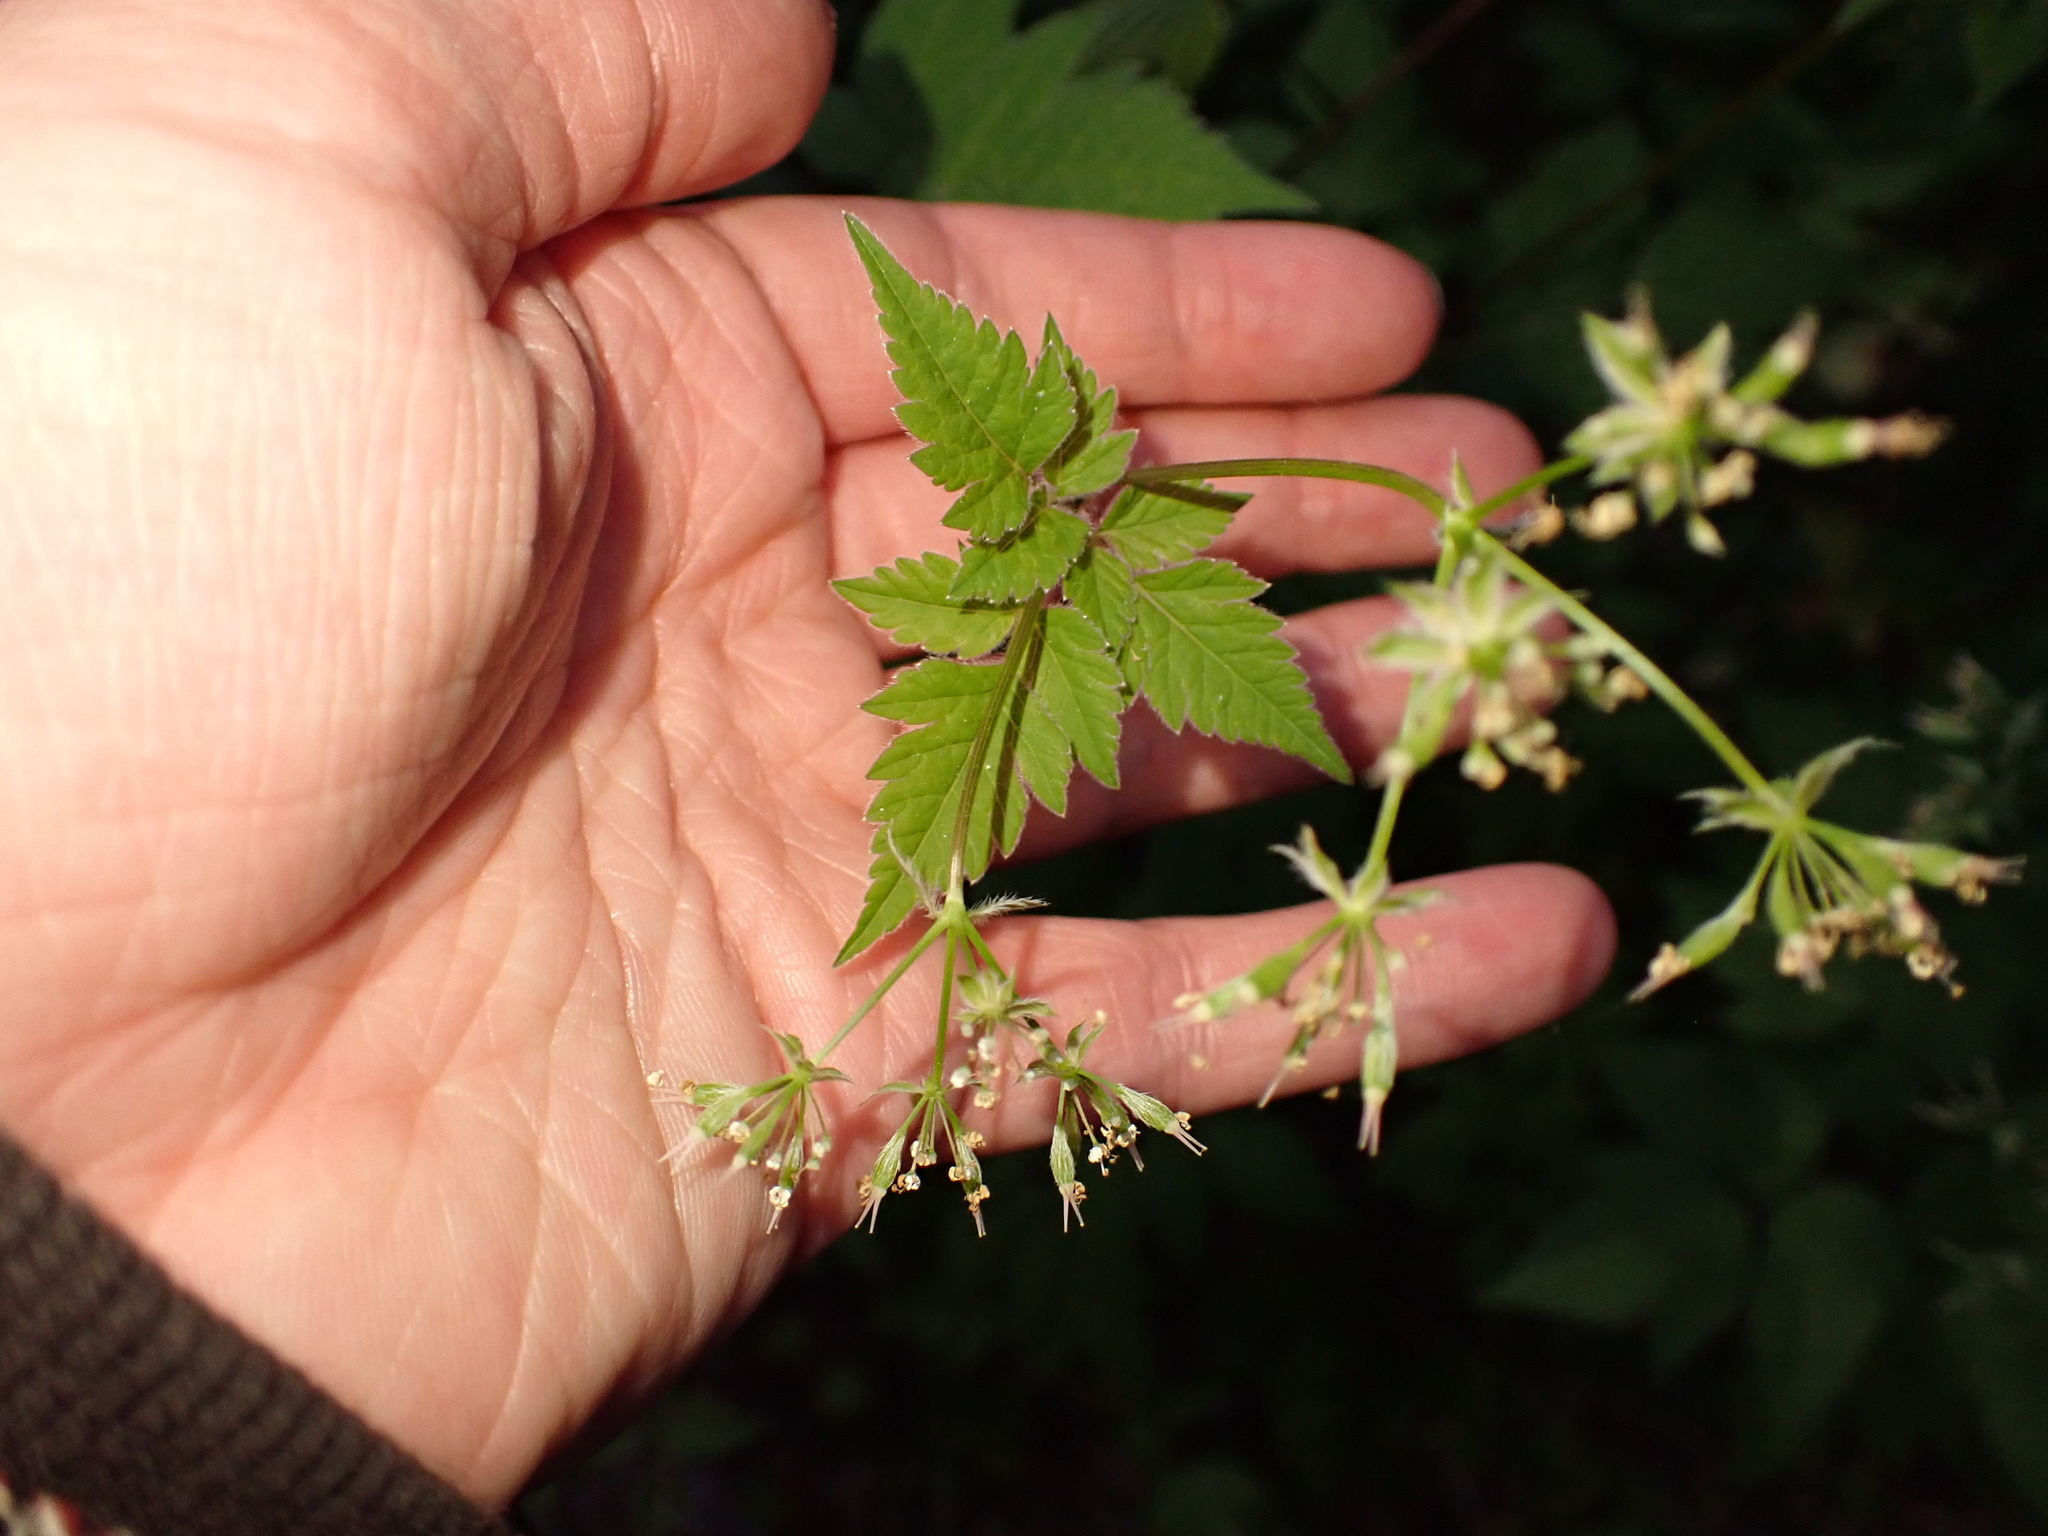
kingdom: Plantae
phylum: Tracheophyta
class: Magnoliopsida
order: Apiales
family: Apiaceae
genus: Osmorhiza
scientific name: Osmorhiza longistylis
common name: Smooth sweet cicely
